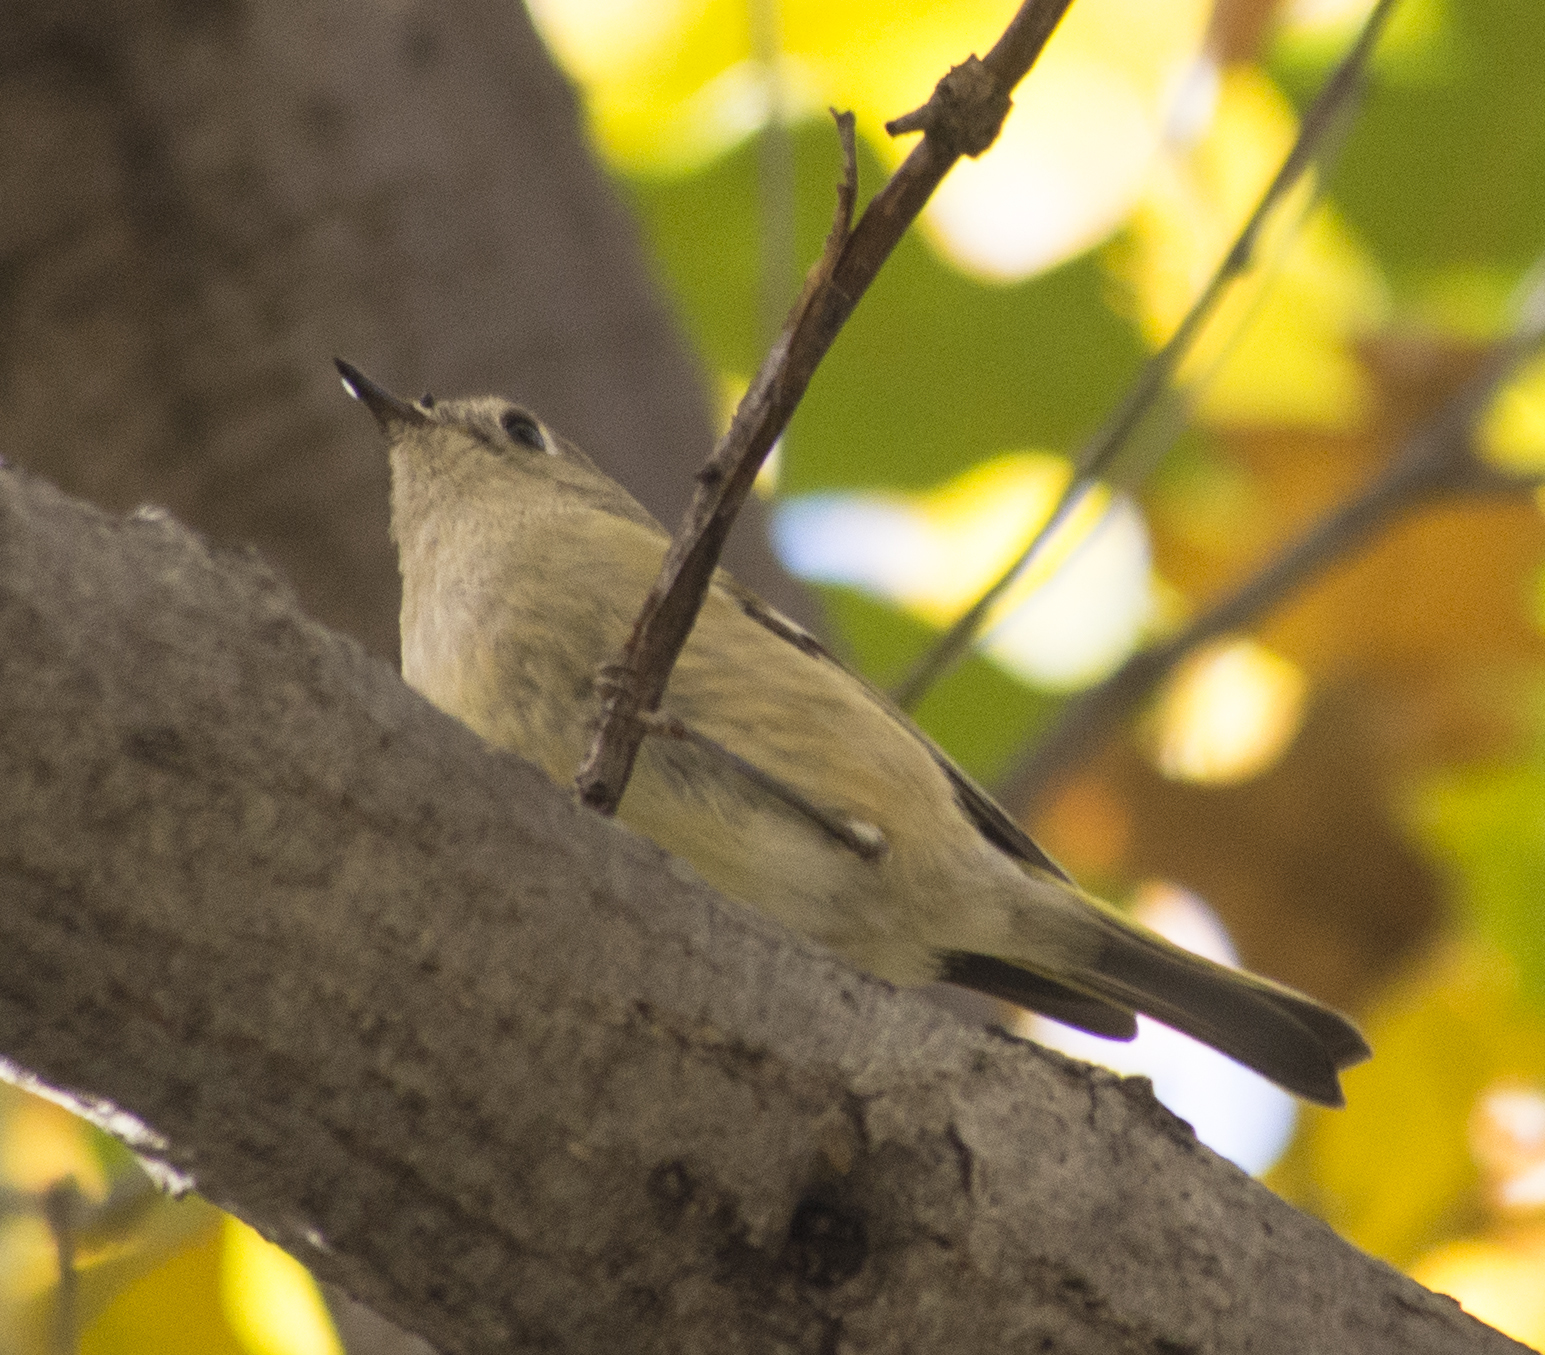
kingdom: Animalia
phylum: Chordata
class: Aves
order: Passeriformes
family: Regulidae
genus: Regulus
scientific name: Regulus calendula
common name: Ruby-crowned kinglet
